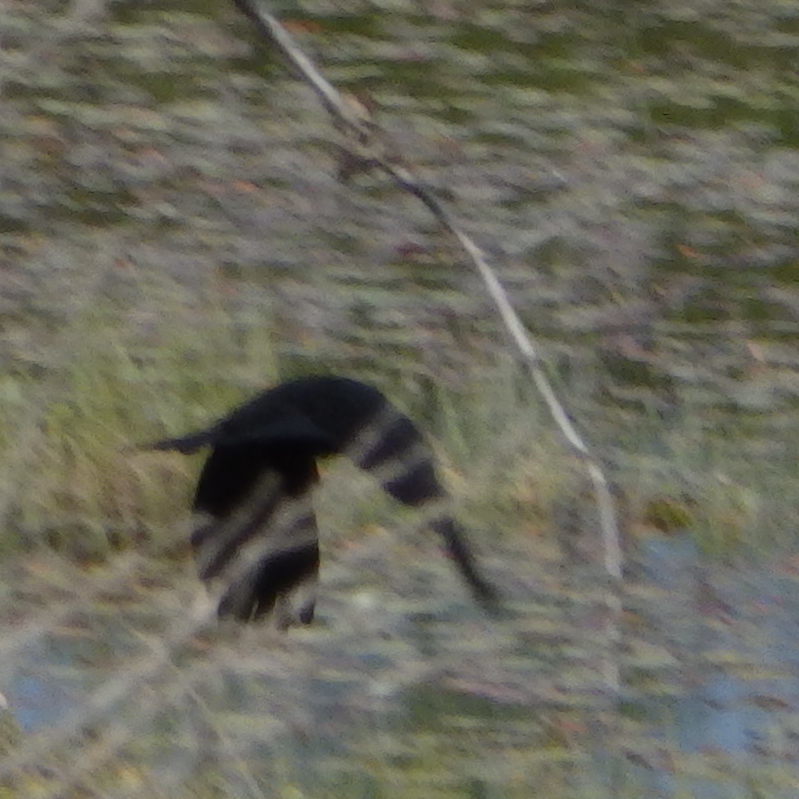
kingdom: Animalia
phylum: Chordata
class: Aves
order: Passeriformes
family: Icteridae
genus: Quiscalus
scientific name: Quiscalus quiscula
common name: Common grackle
